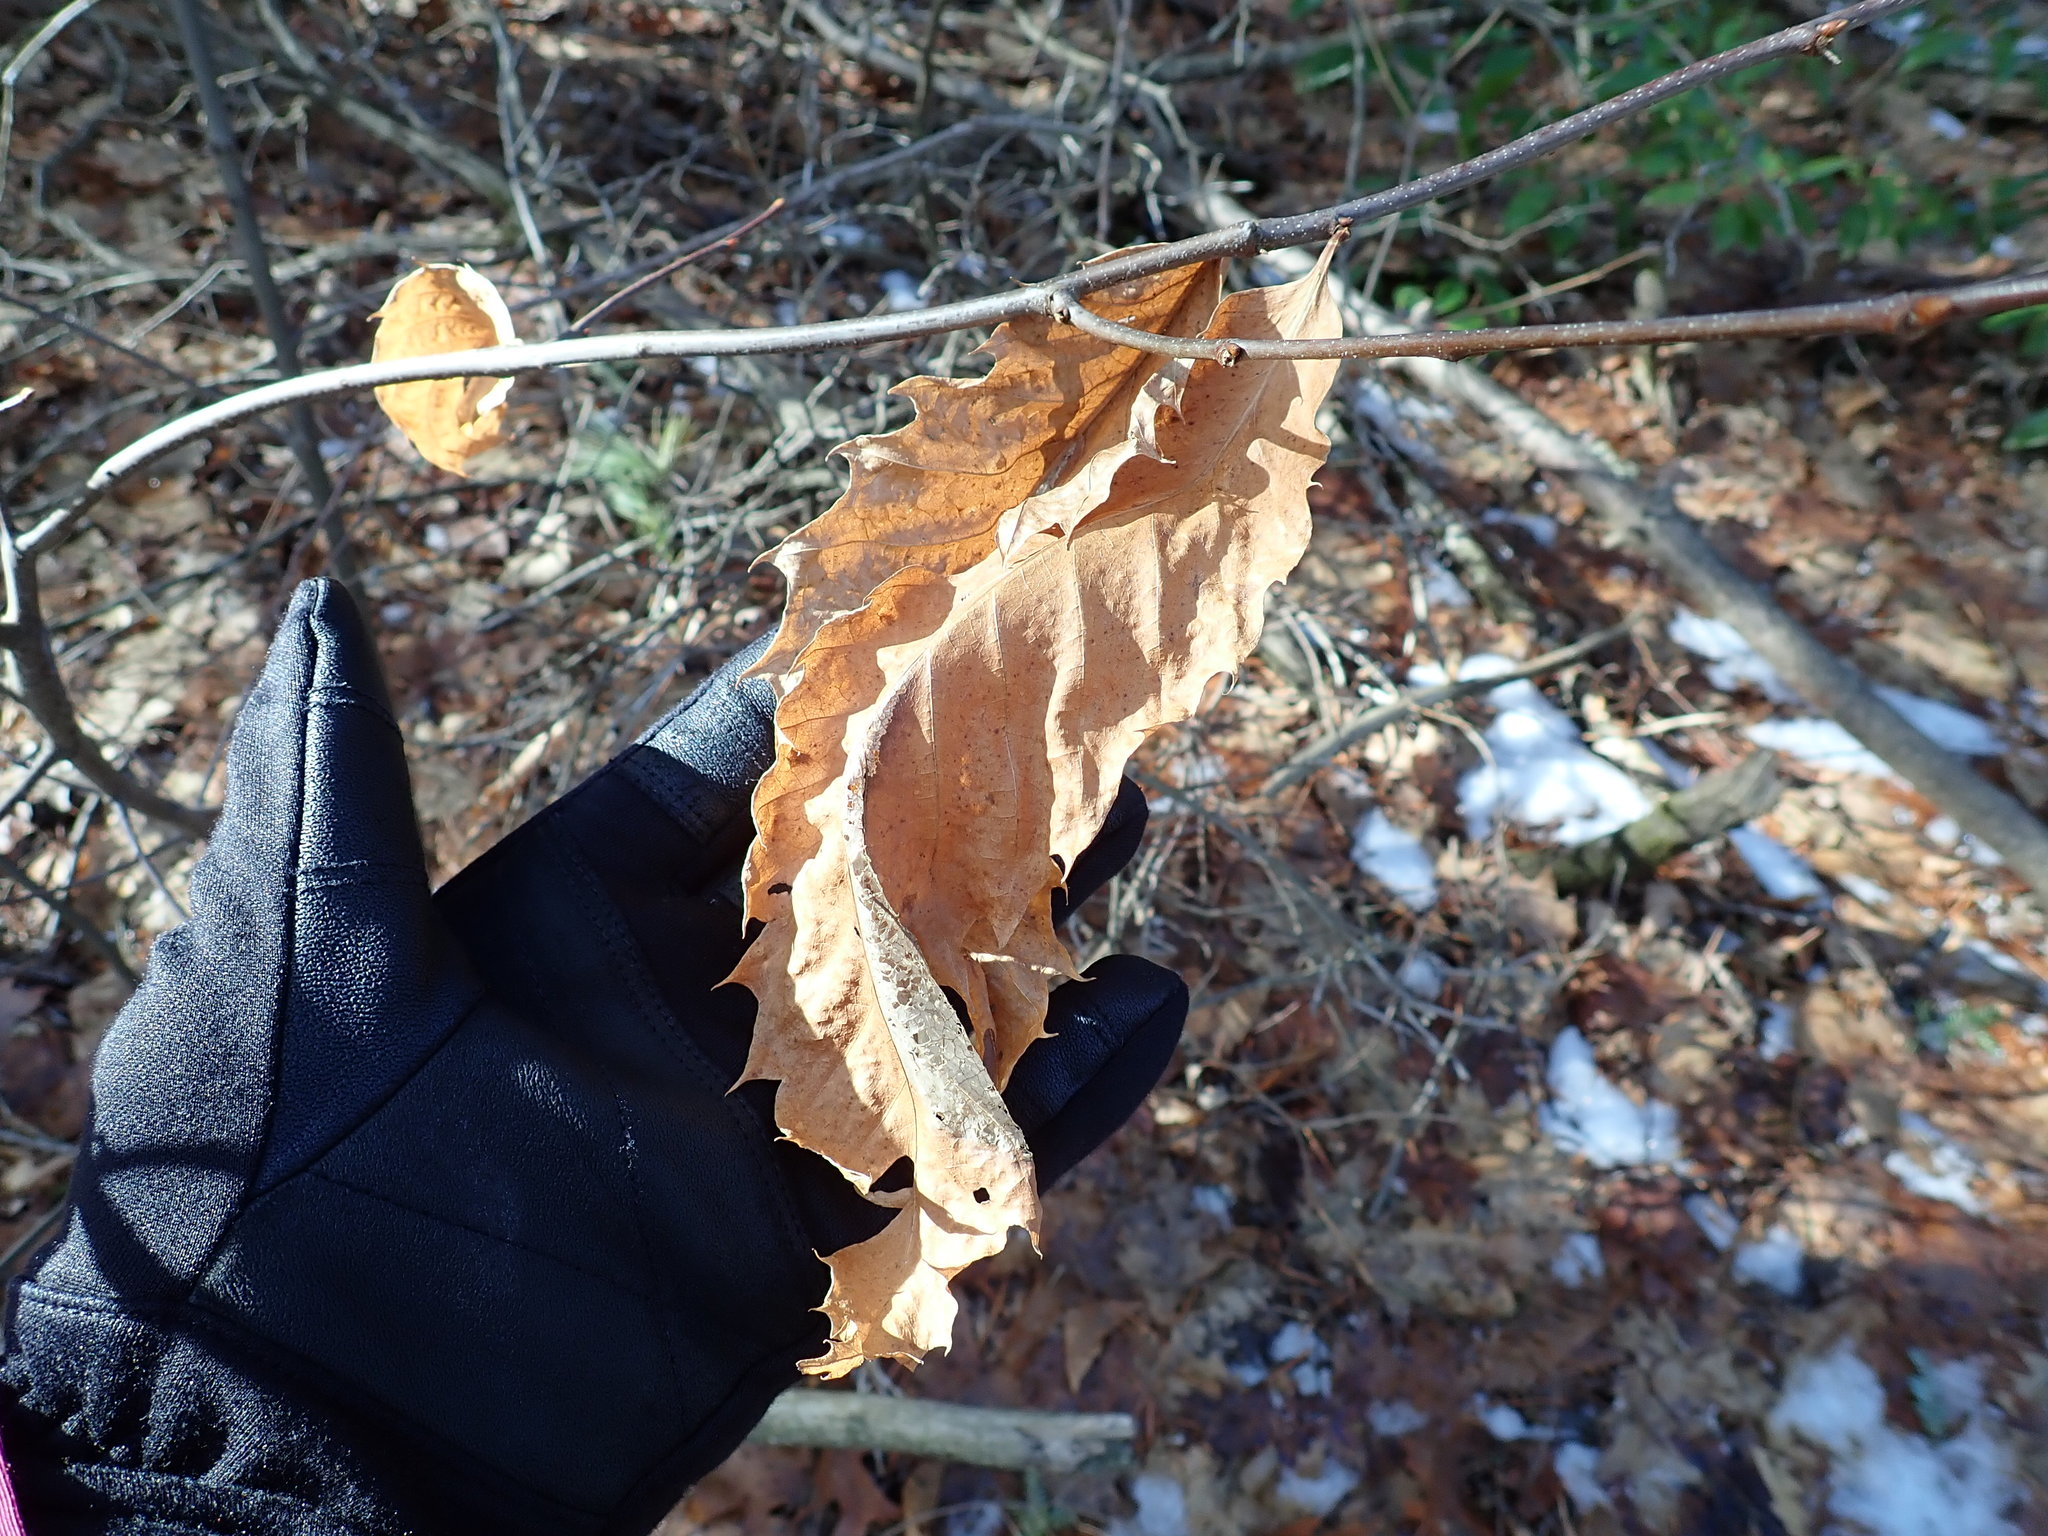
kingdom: Plantae
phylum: Tracheophyta
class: Magnoliopsida
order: Fagales
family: Fagaceae
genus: Castanea
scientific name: Castanea dentata
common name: American chestnut
